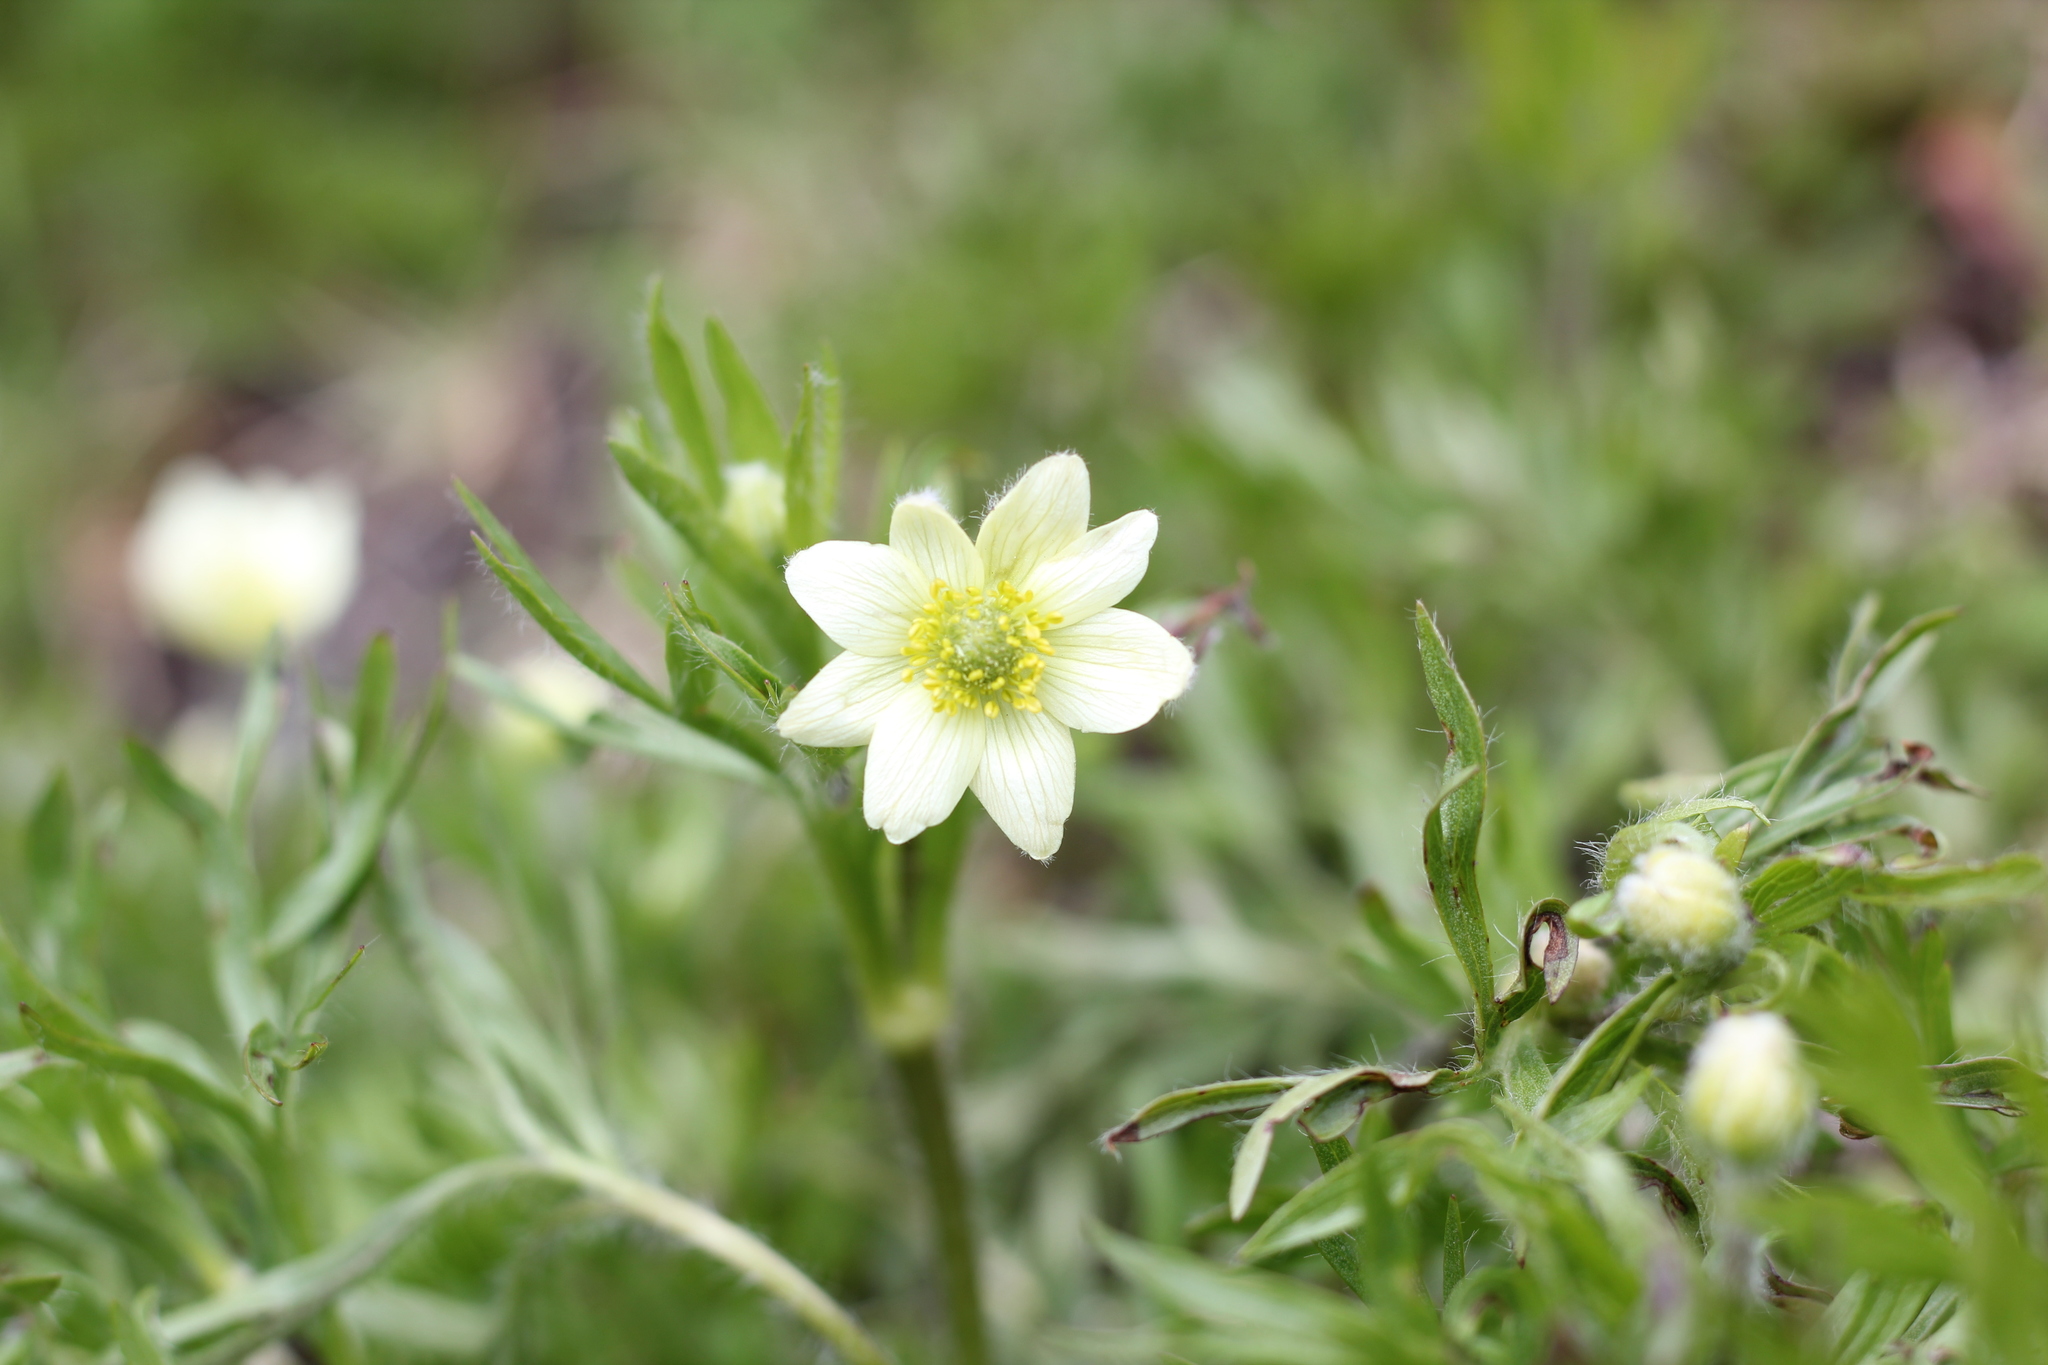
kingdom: Plantae
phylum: Tracheophyta
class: Magnoliopsida
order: Ranunculales
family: Ranunculaceae
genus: Anemone
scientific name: Anemone multifida
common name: Bird's-foot anemone
